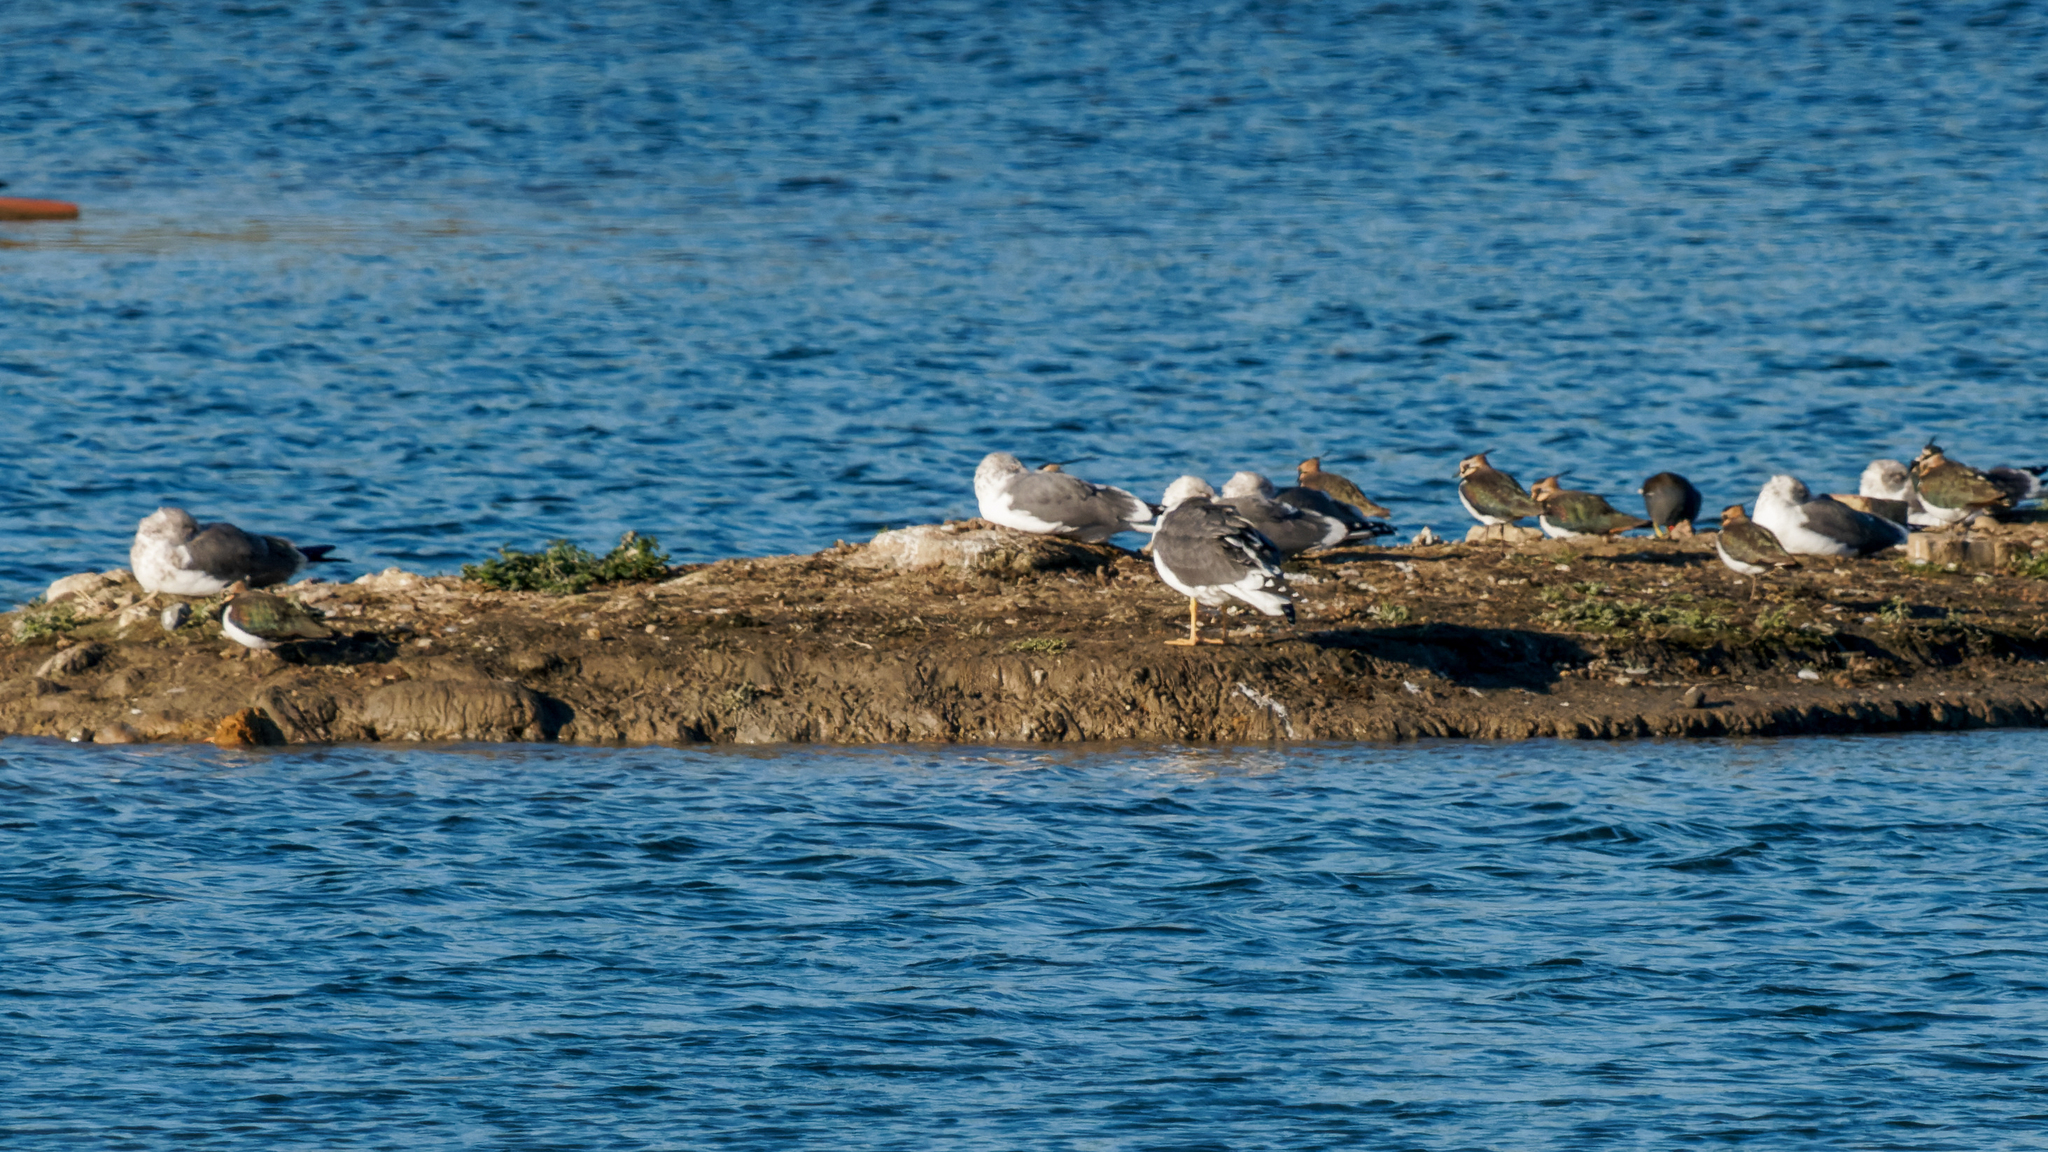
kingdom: Animalia
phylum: Chordata
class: Aves
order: Charadriiformes
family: Laridae
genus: Larus
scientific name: Larus fuscus
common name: Lesser black-backed gull
